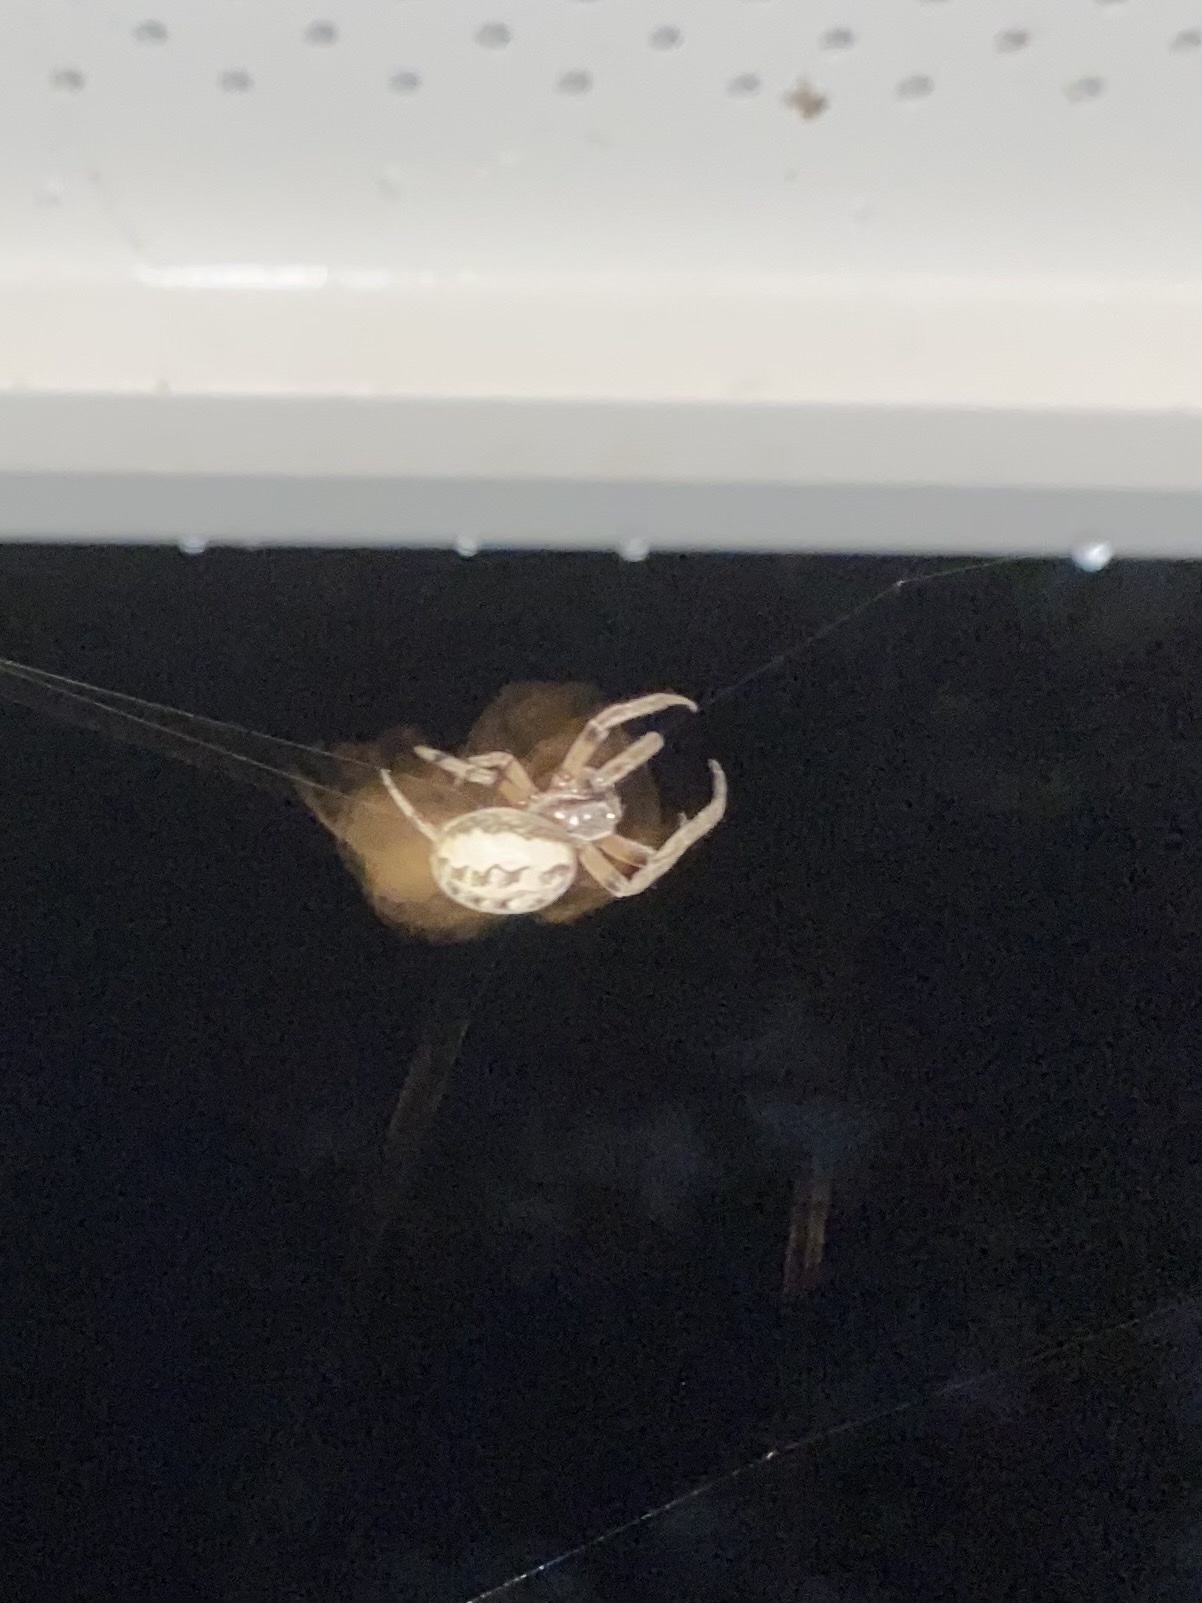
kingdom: Animalia
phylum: Arthropoda
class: Arachnida
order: Araneae
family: Araneidae
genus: Larinioides
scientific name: Larinioides cornutus
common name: Furrow orbweaver
